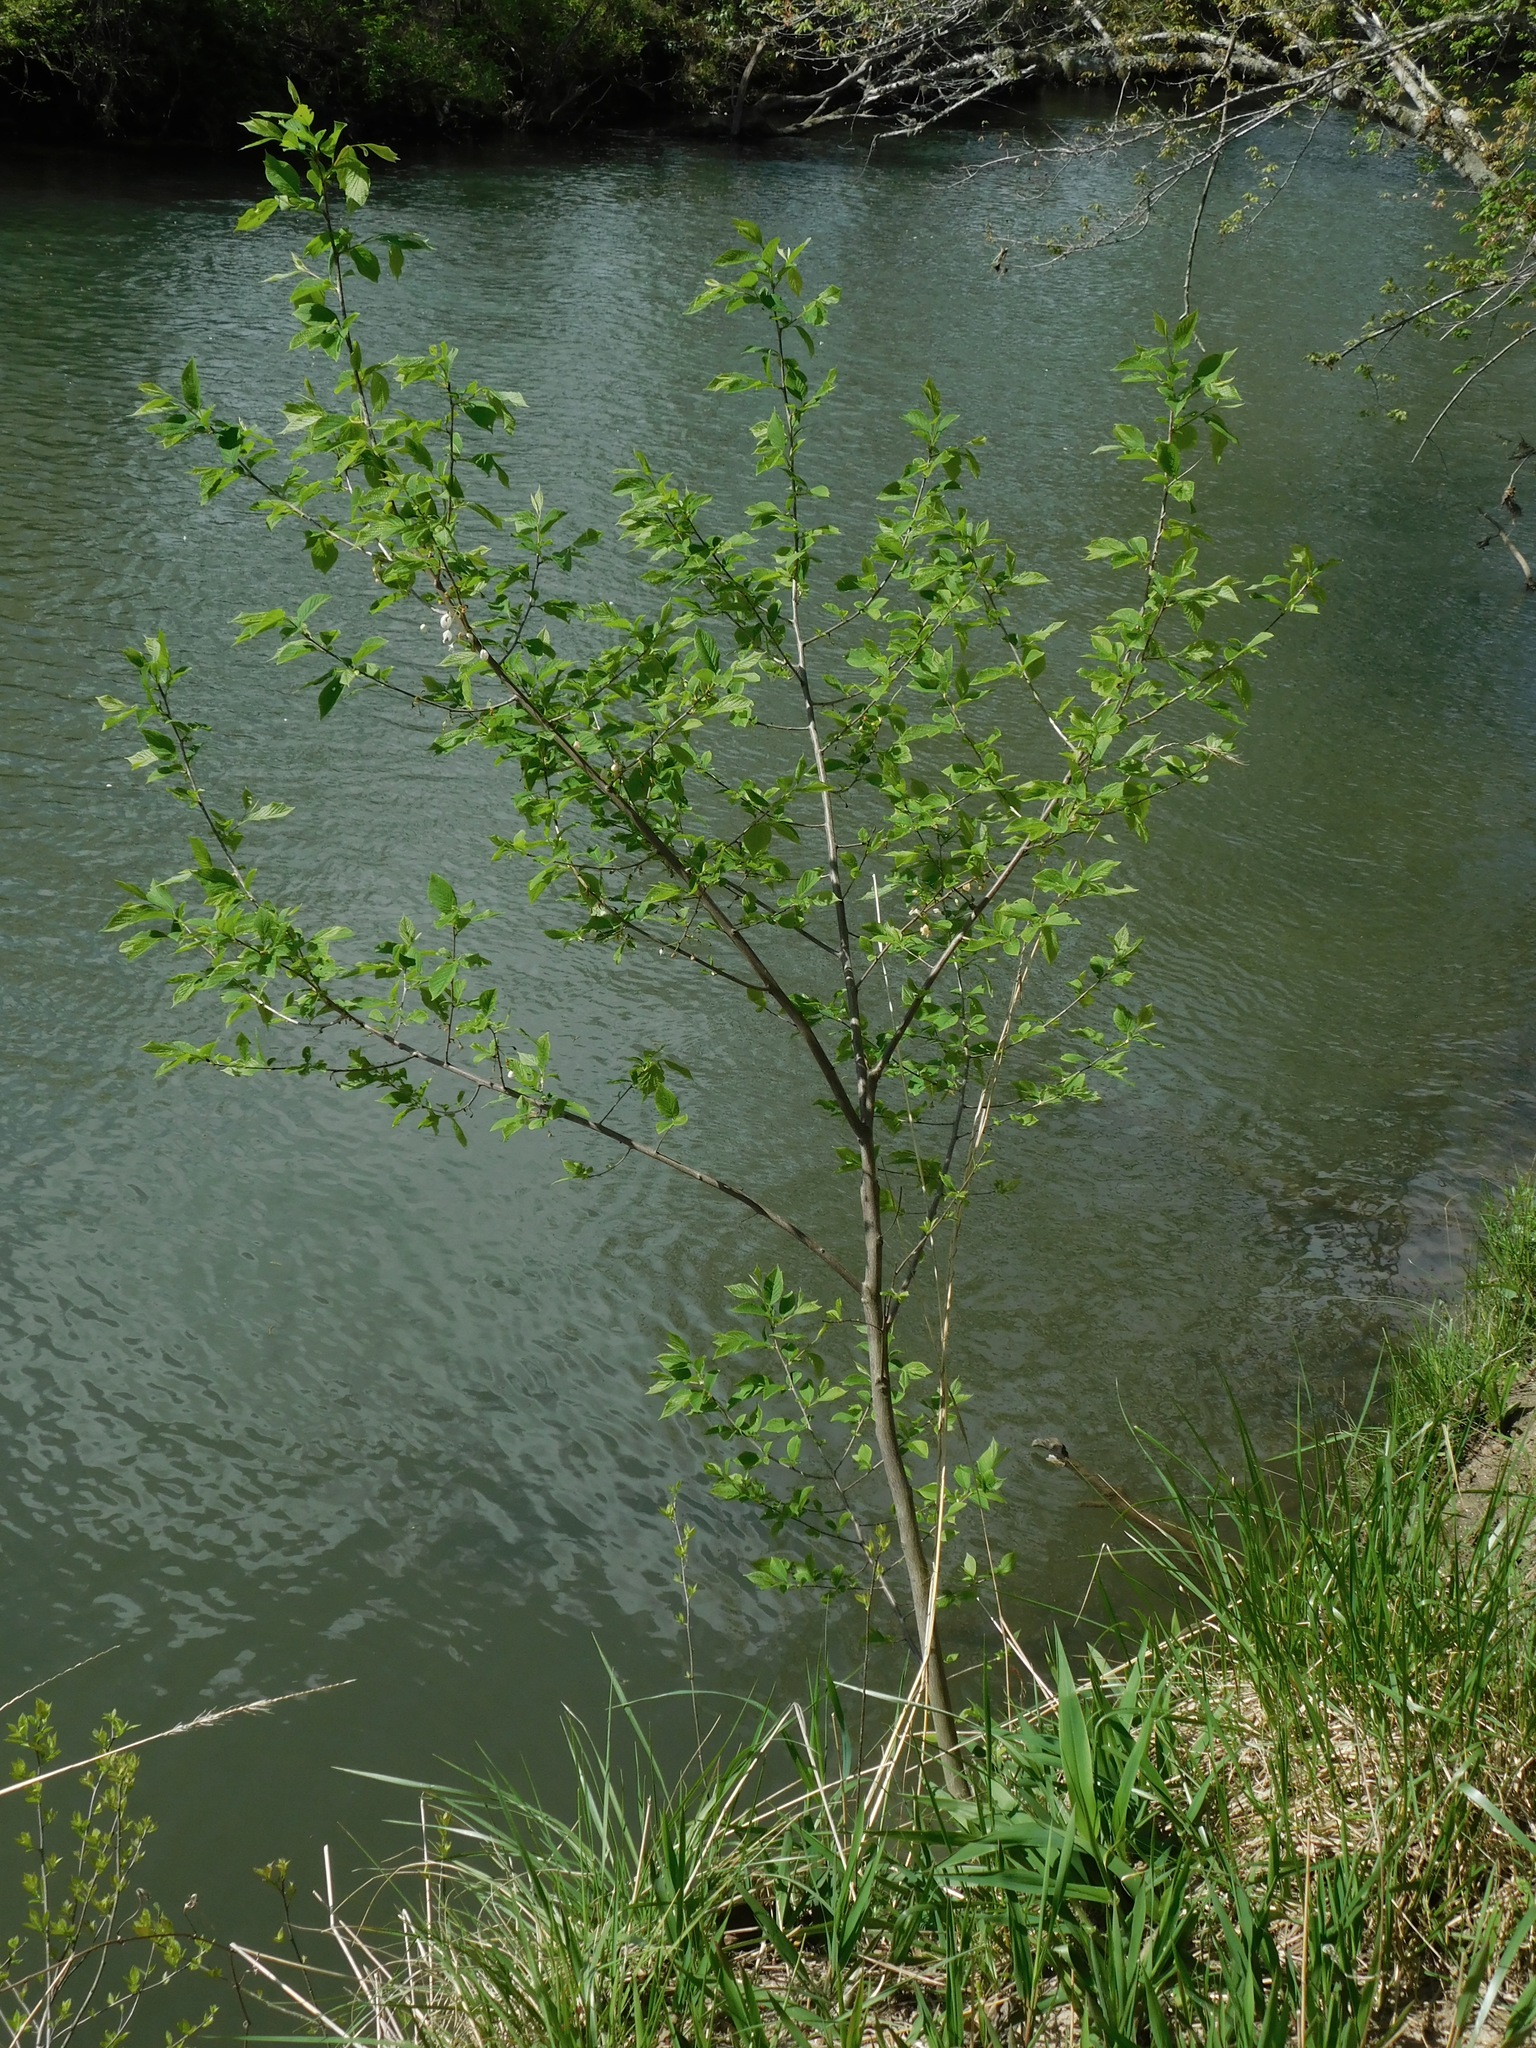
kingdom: Plantae
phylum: Tracheophyta
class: Magnoliopsida
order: Ericales
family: Styracaceae
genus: Halesia
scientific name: Halesia carolina
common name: Carolina silverbell
